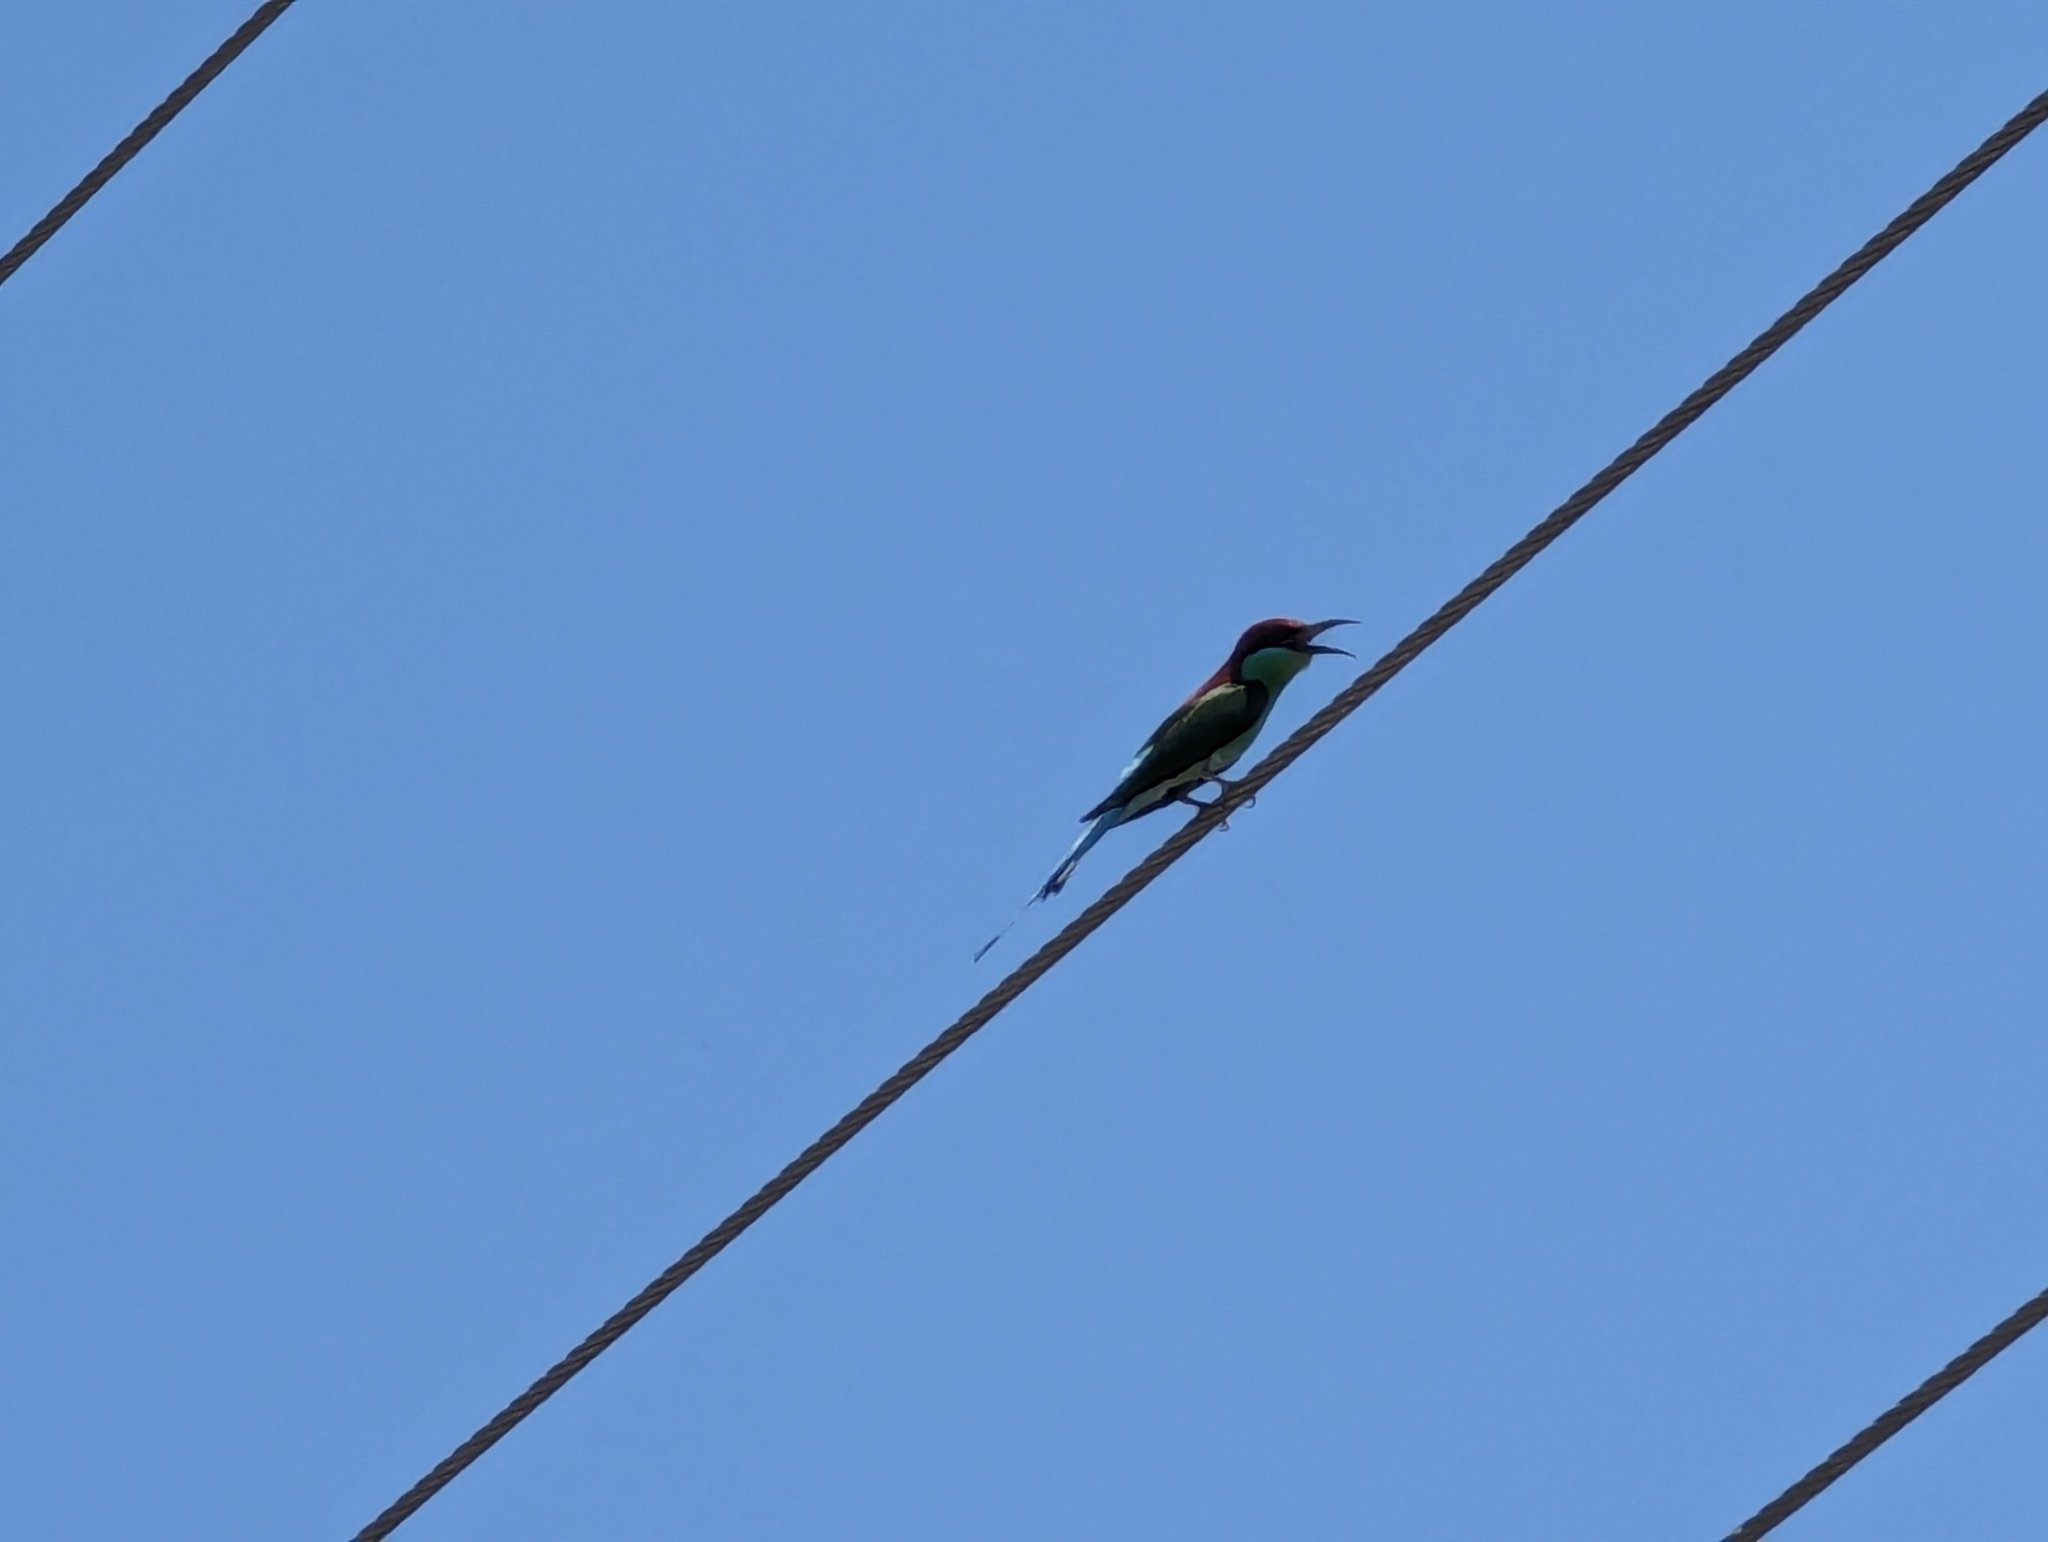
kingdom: Animalia
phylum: Chordata
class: Aves
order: Coraciiformes
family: Meropidae
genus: Merops
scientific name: Merops americanus
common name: Rufous-crowned bee-eater
